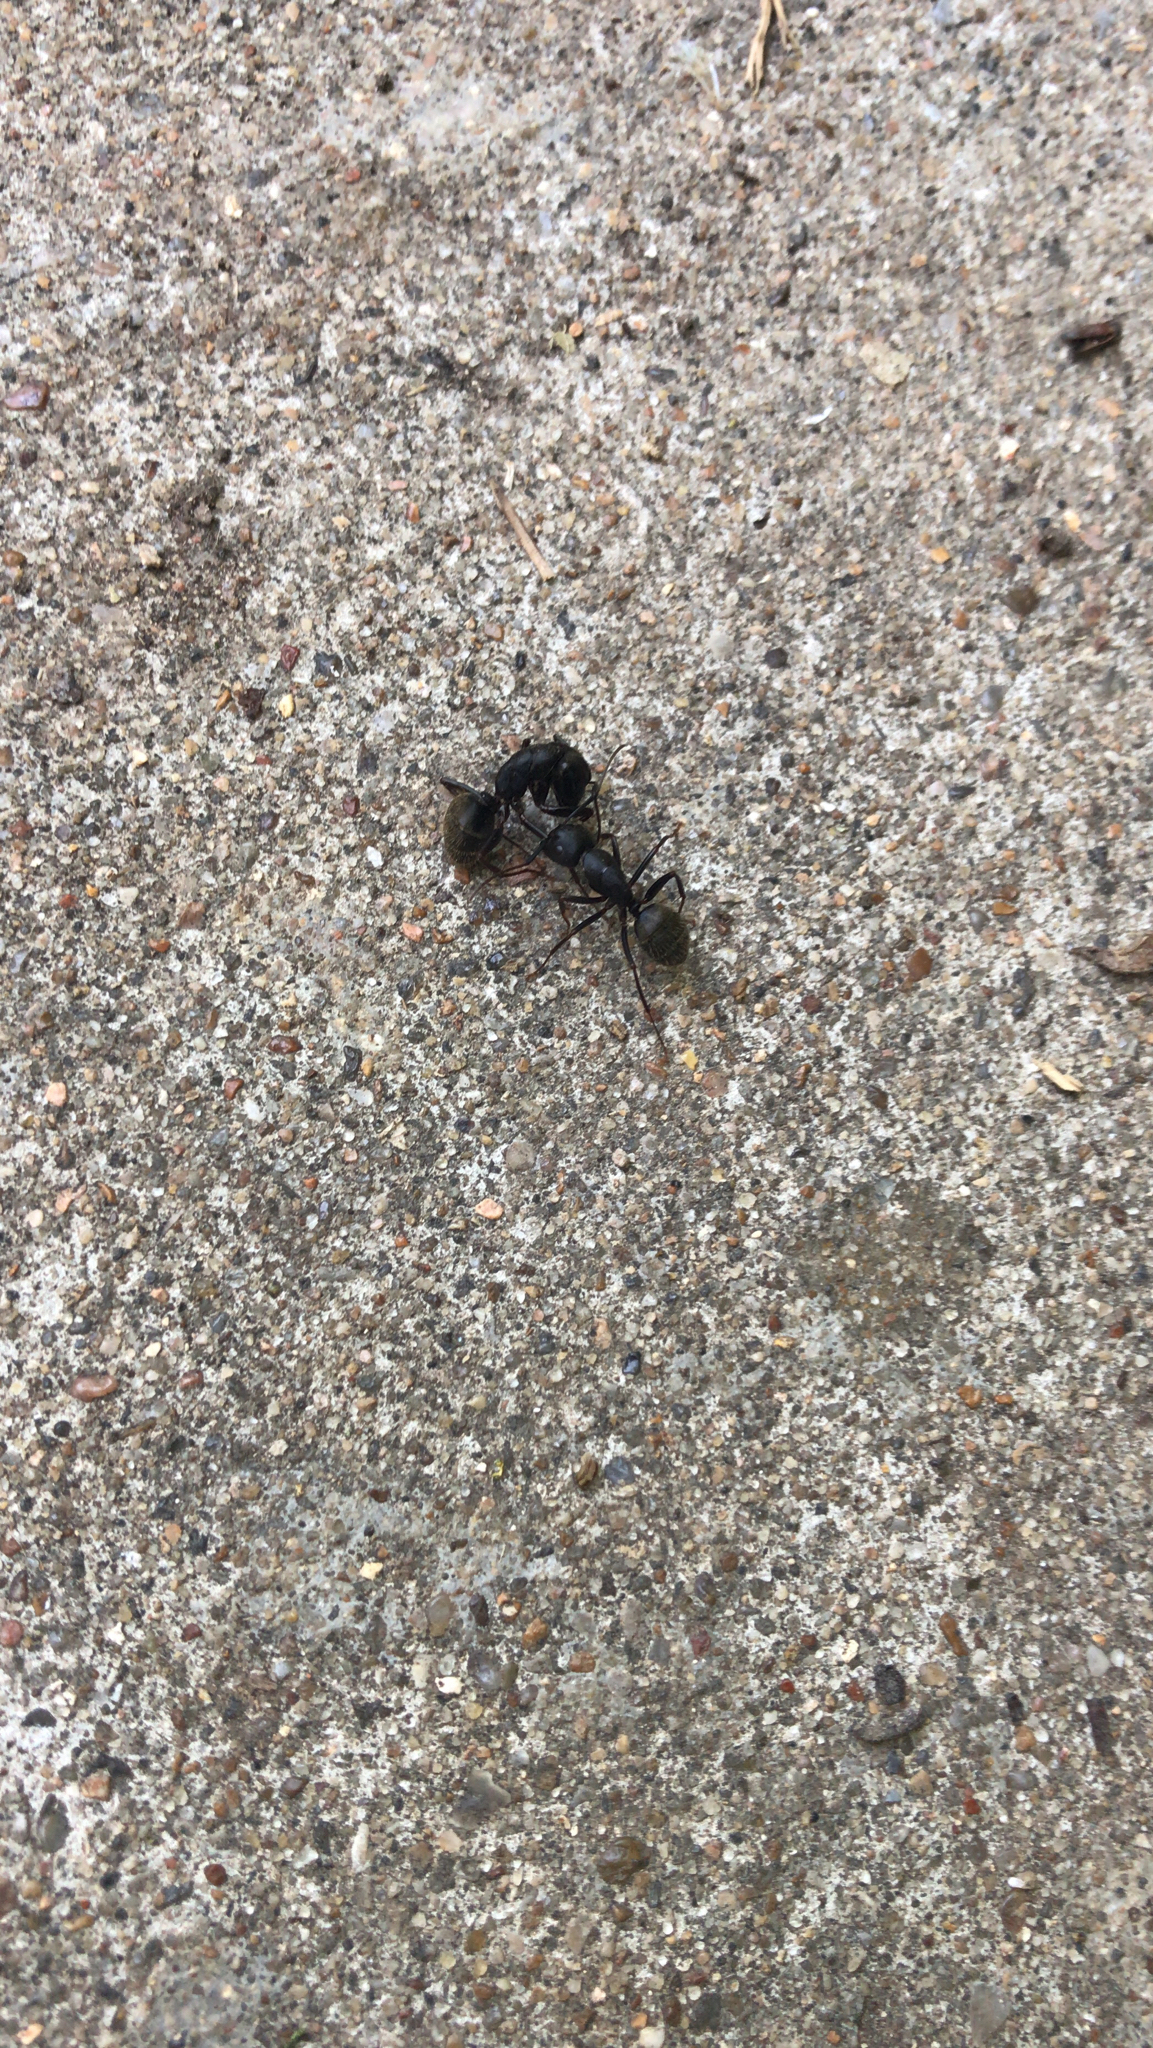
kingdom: Animalia
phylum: Arthropoda
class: Insecta
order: Hymenoptera
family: Formicidae
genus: Camponotus
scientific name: Camponotus pennsylvanicus
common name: Black carpenter ant
